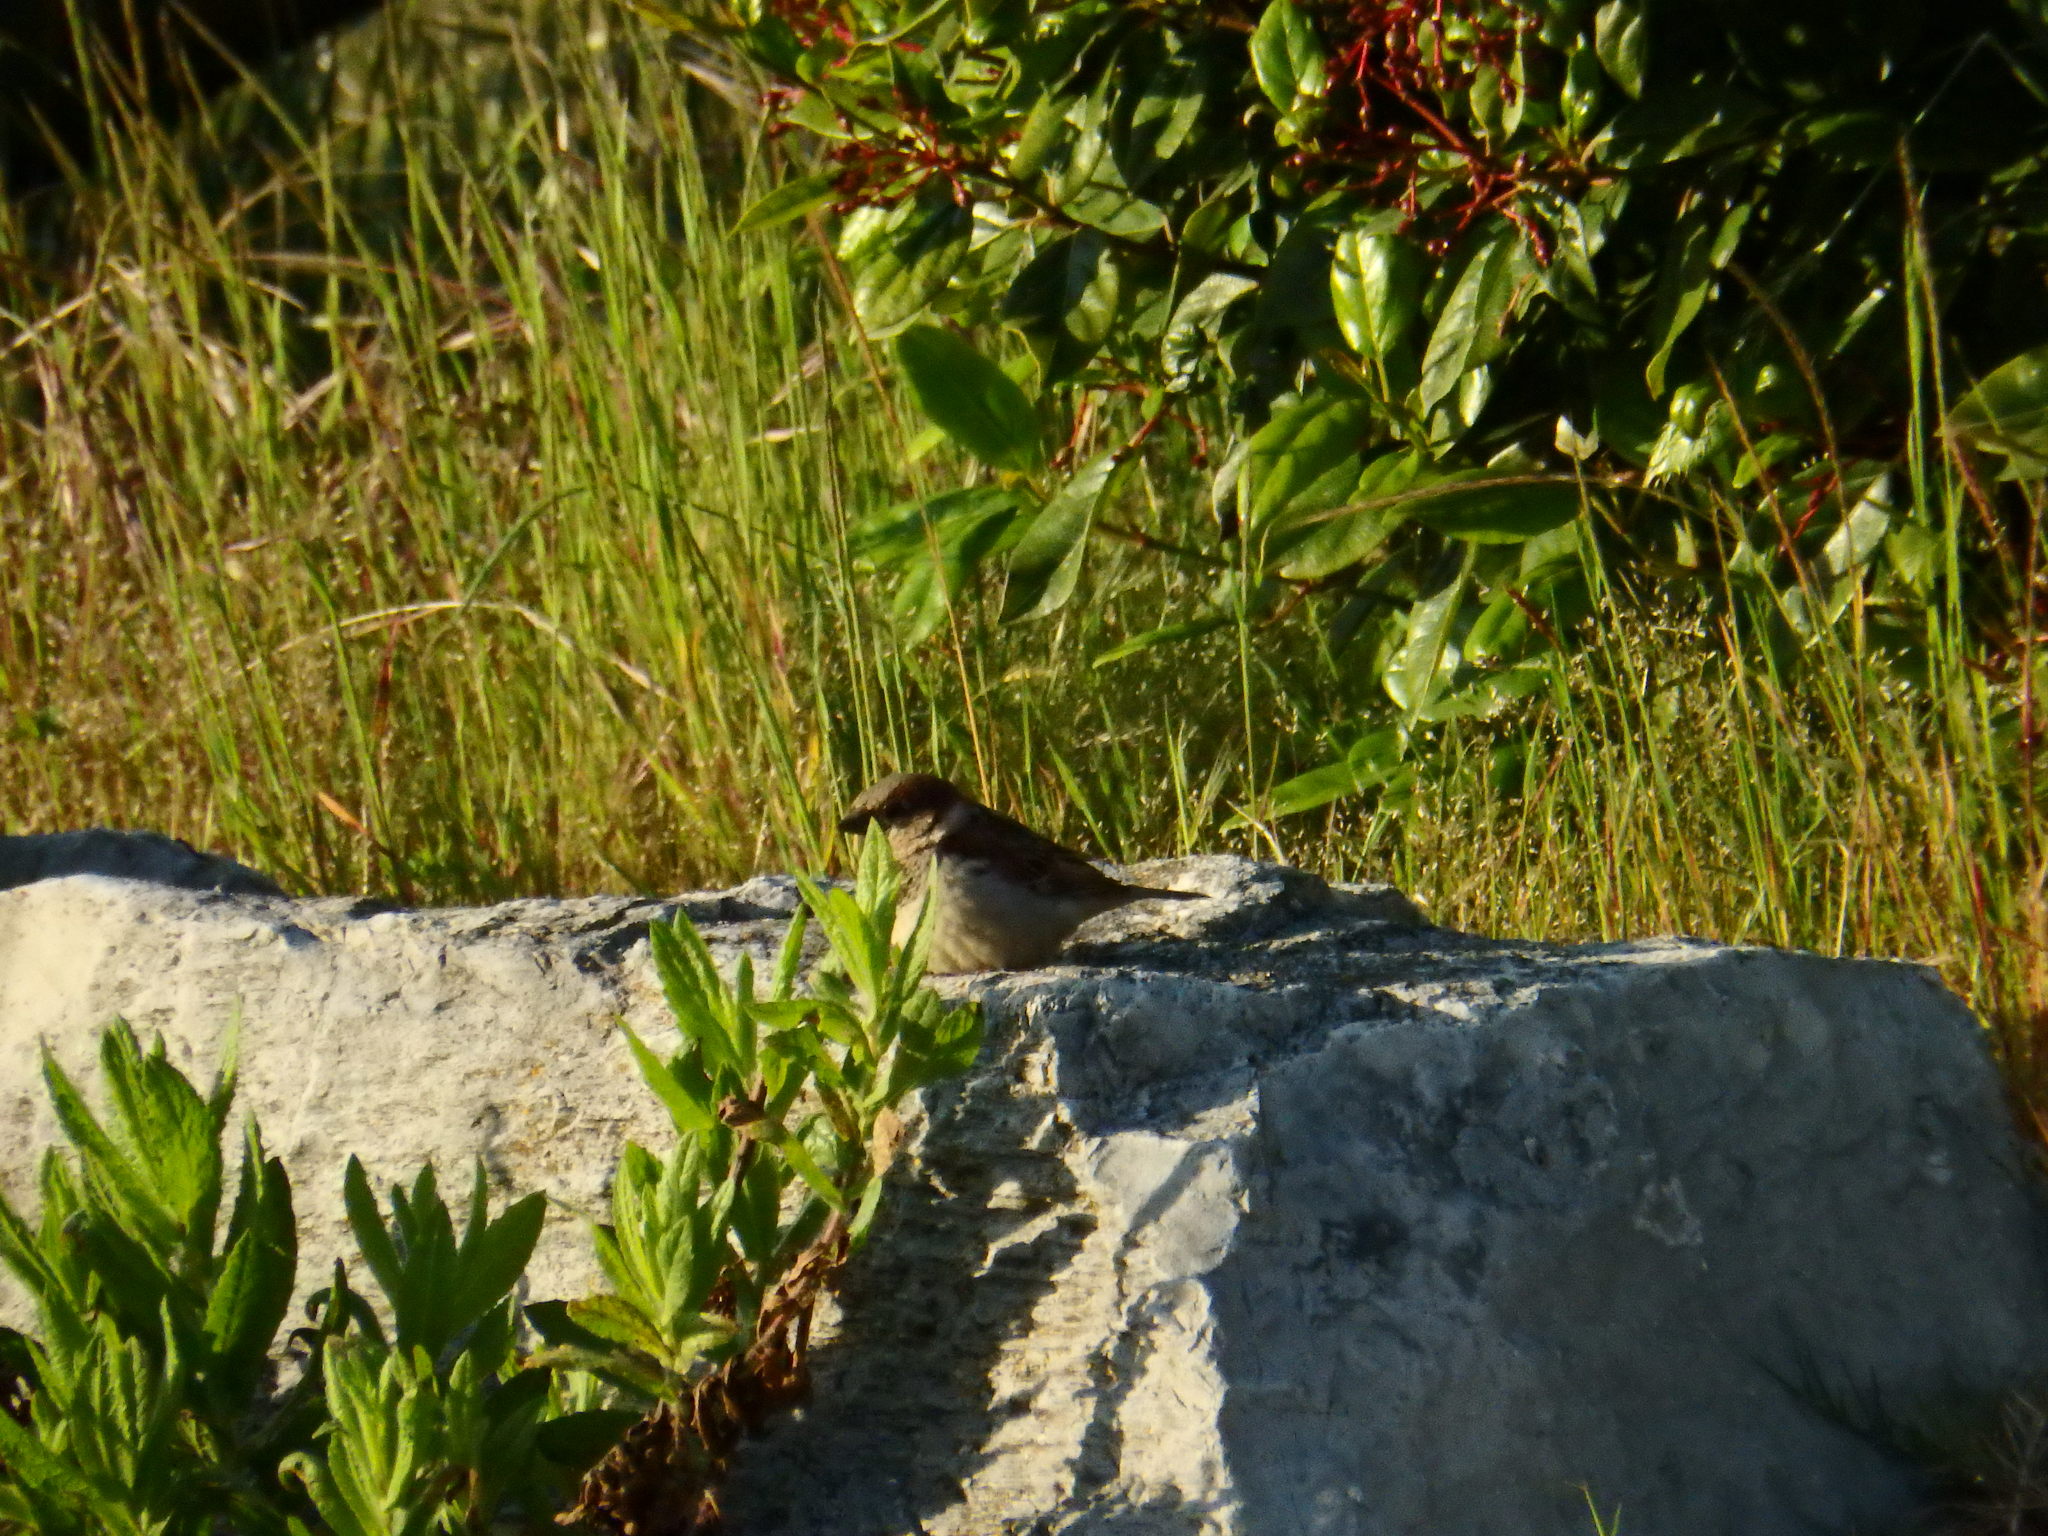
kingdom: Animalia
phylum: Chordata
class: Aves
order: Passeriformes
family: Passeridae
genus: Passer
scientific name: Passer domesticus
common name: House sparrow
